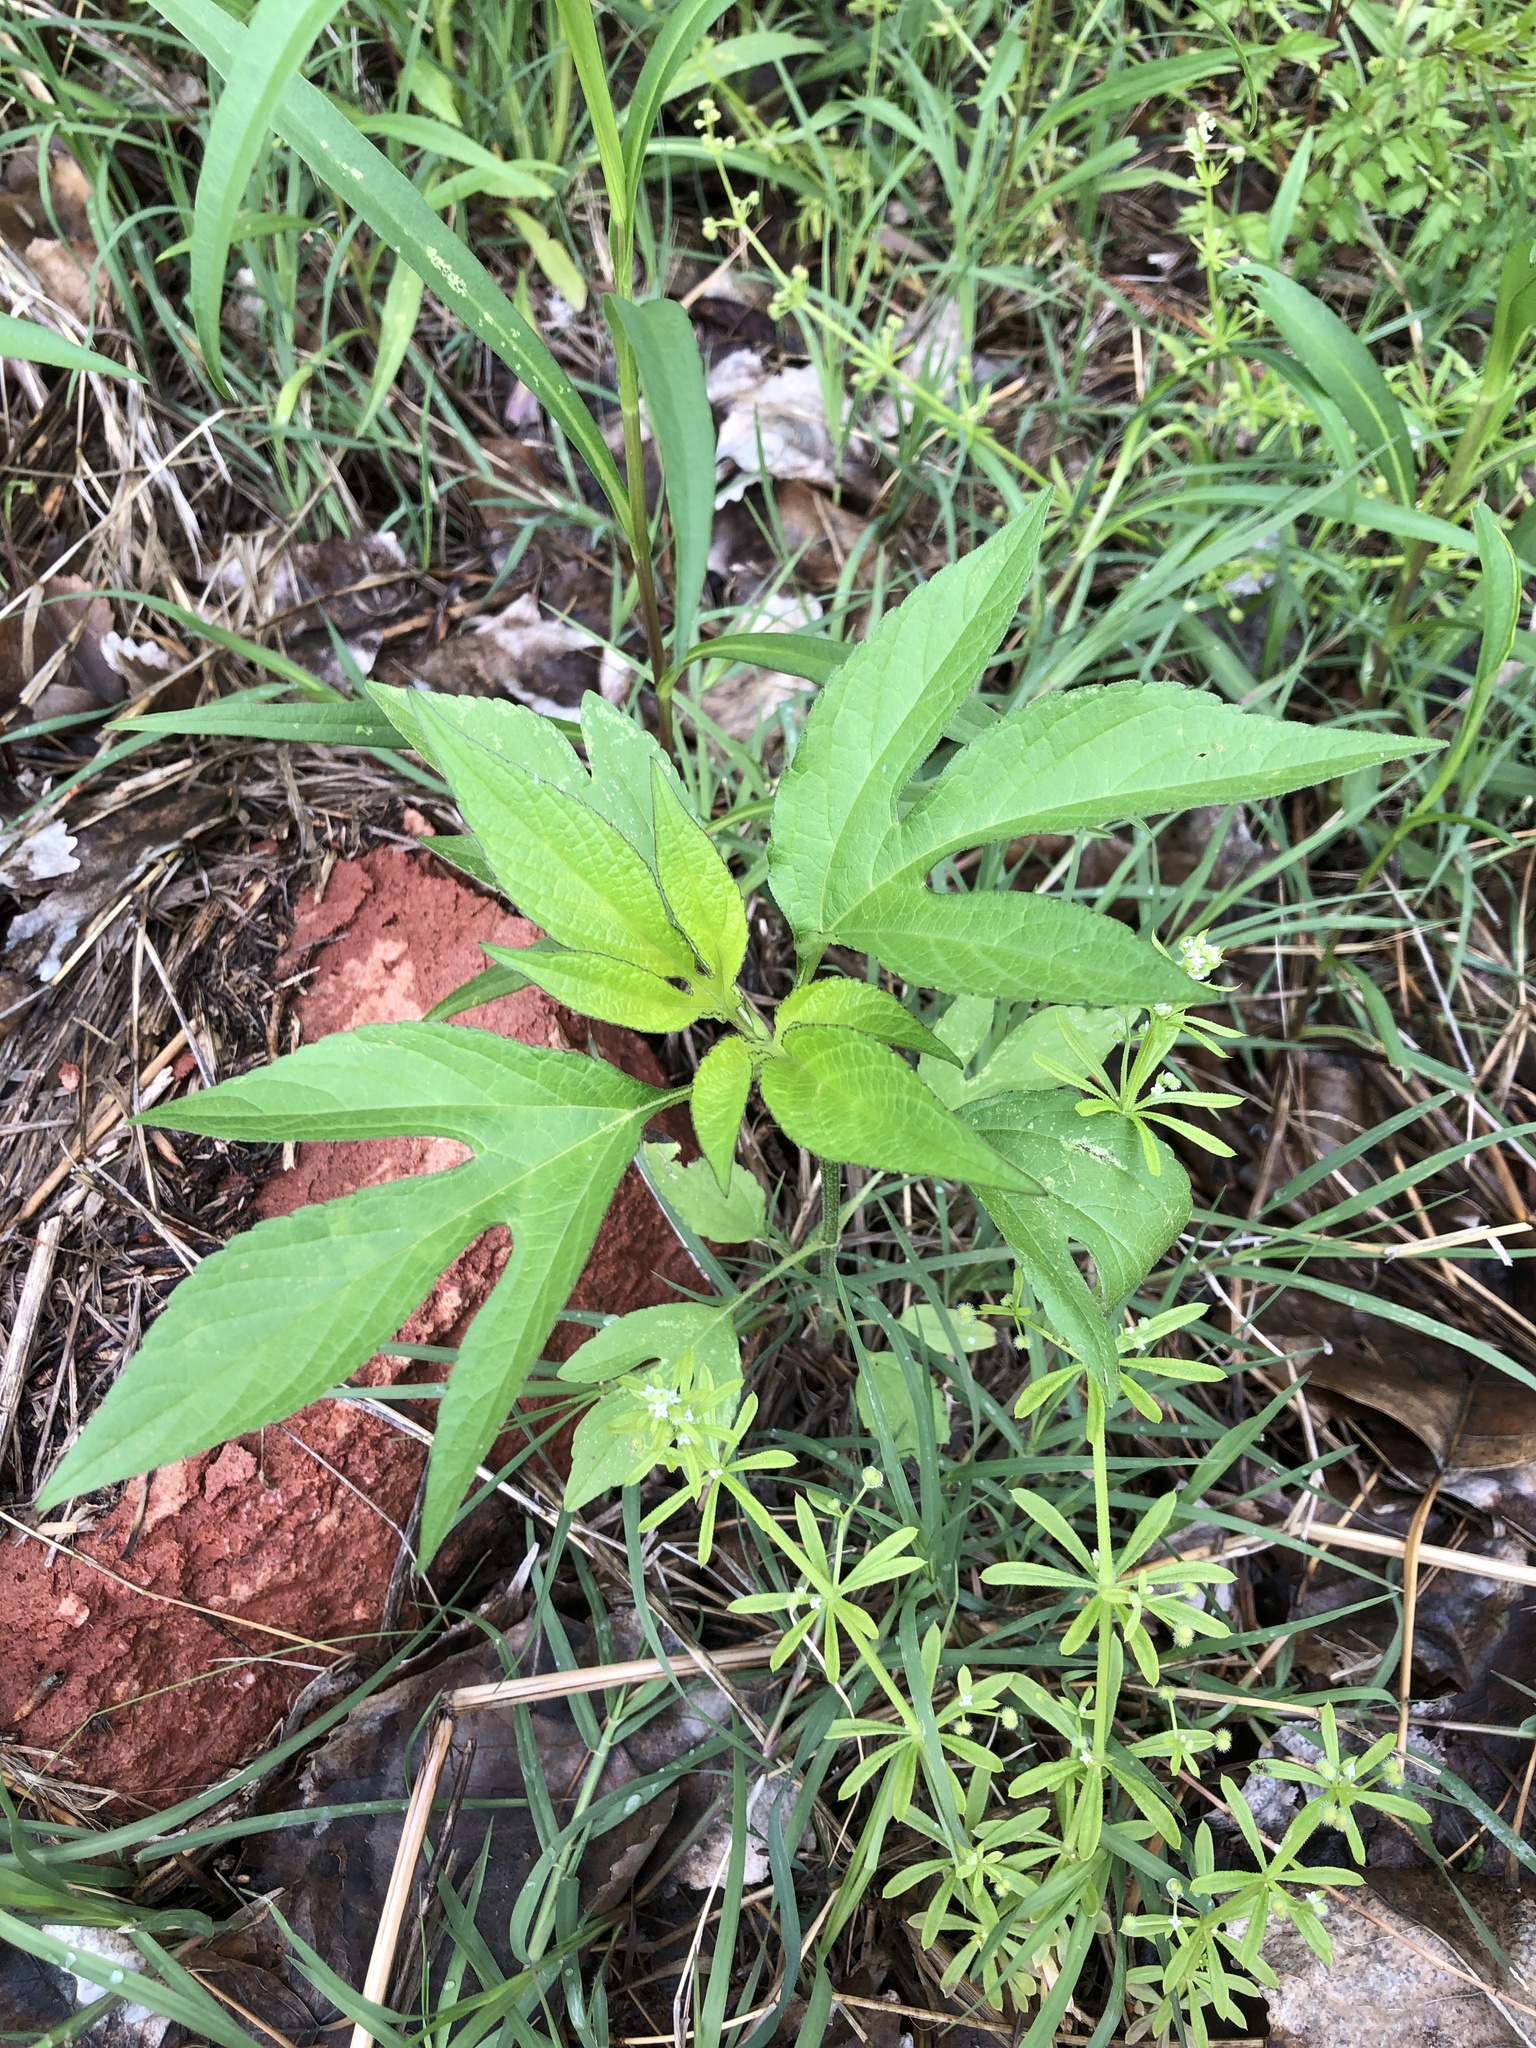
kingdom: Plantae
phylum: Tracheophyta
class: Magnoliopsida
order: Asterales
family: Asteraceae
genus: Ambrosia
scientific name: Ambrosia trifida
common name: Giant ragweed
